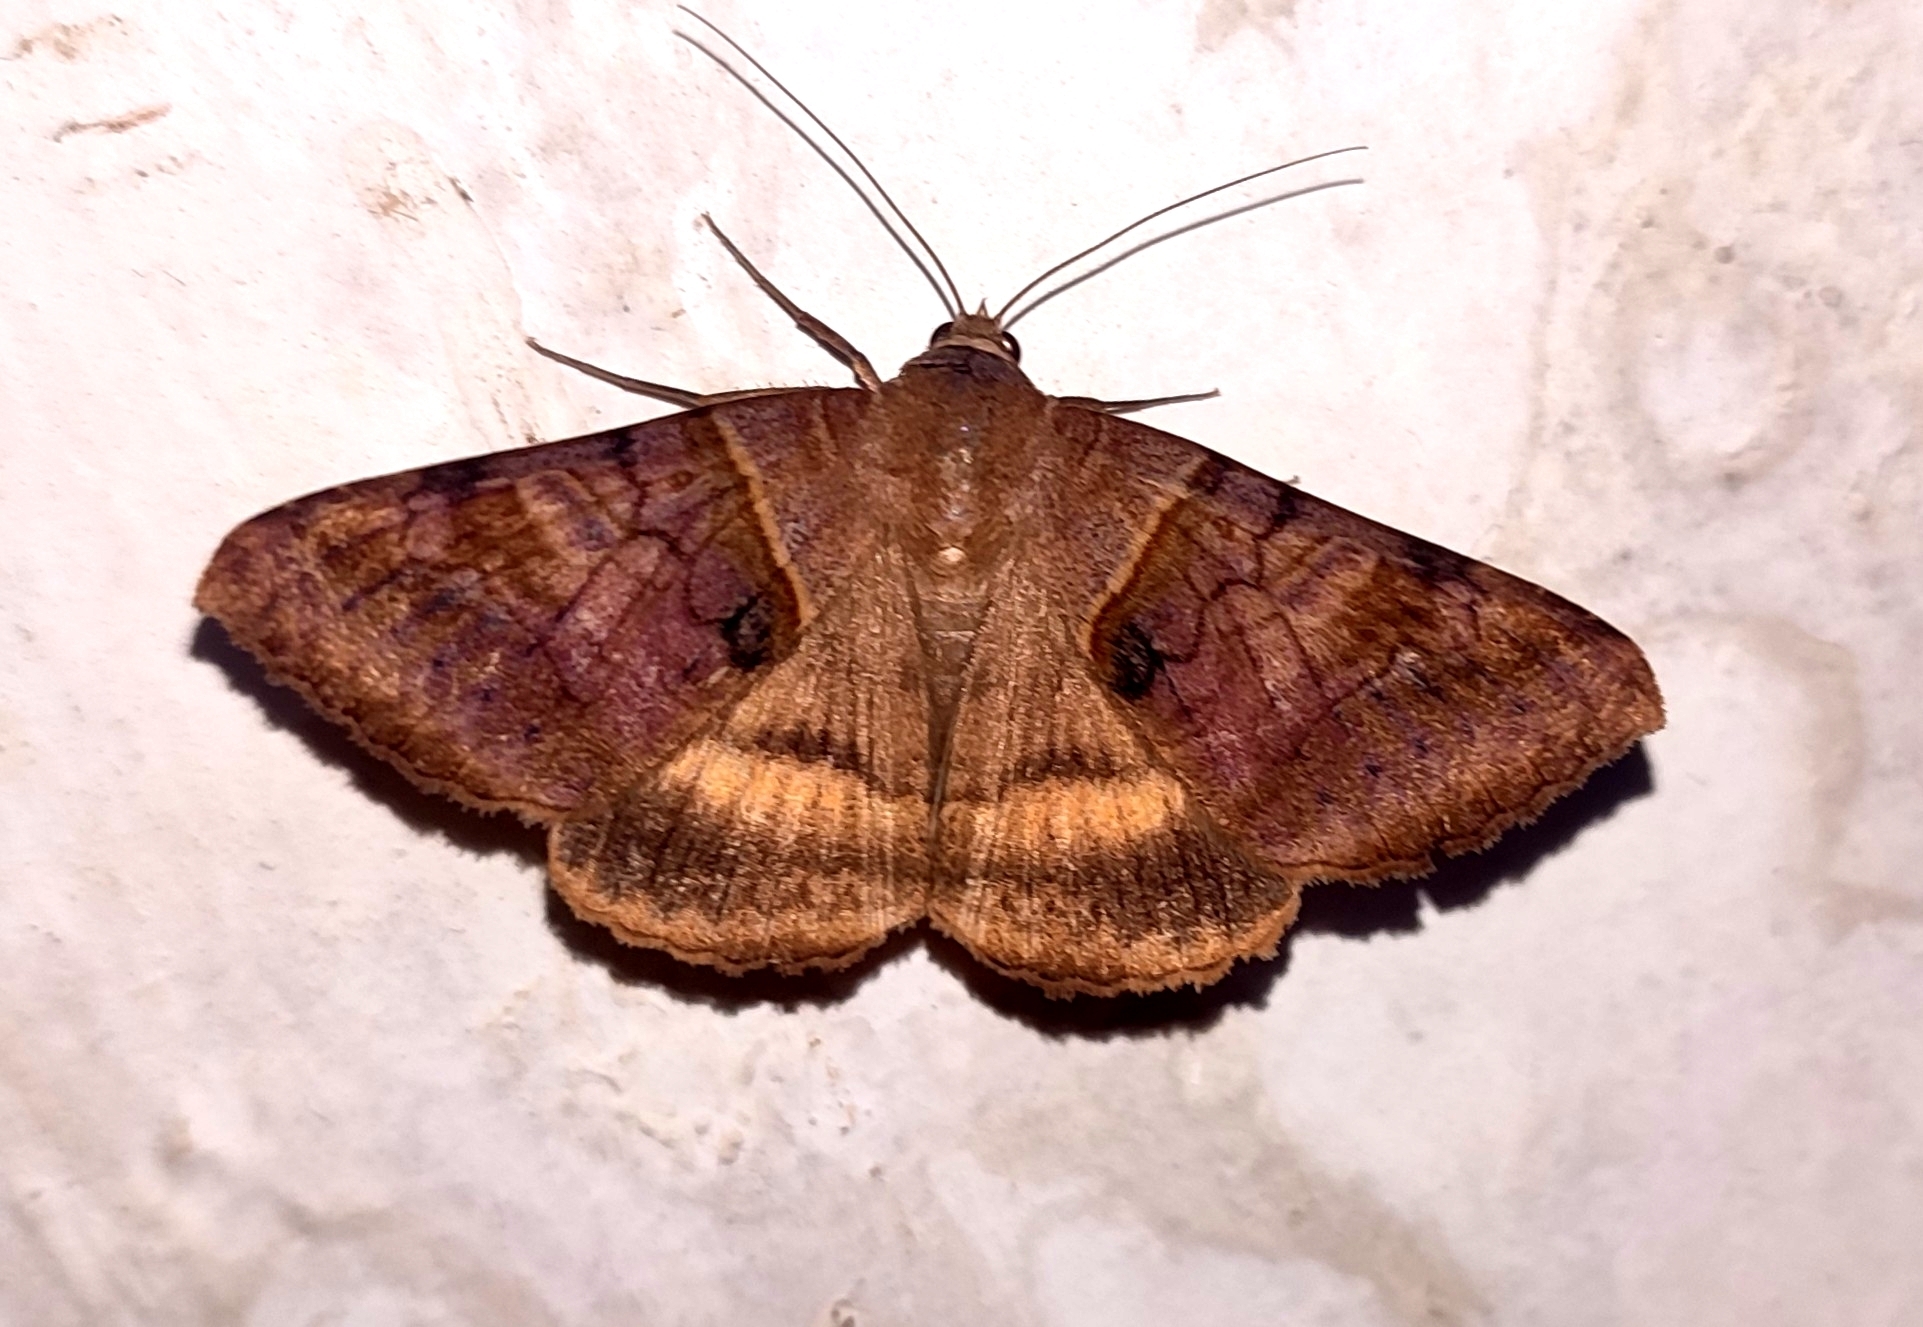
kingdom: Animalia
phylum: Arthropoda
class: Insecta
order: Lepidoptera
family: Erebidae
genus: Mocis
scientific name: Mocis undata
